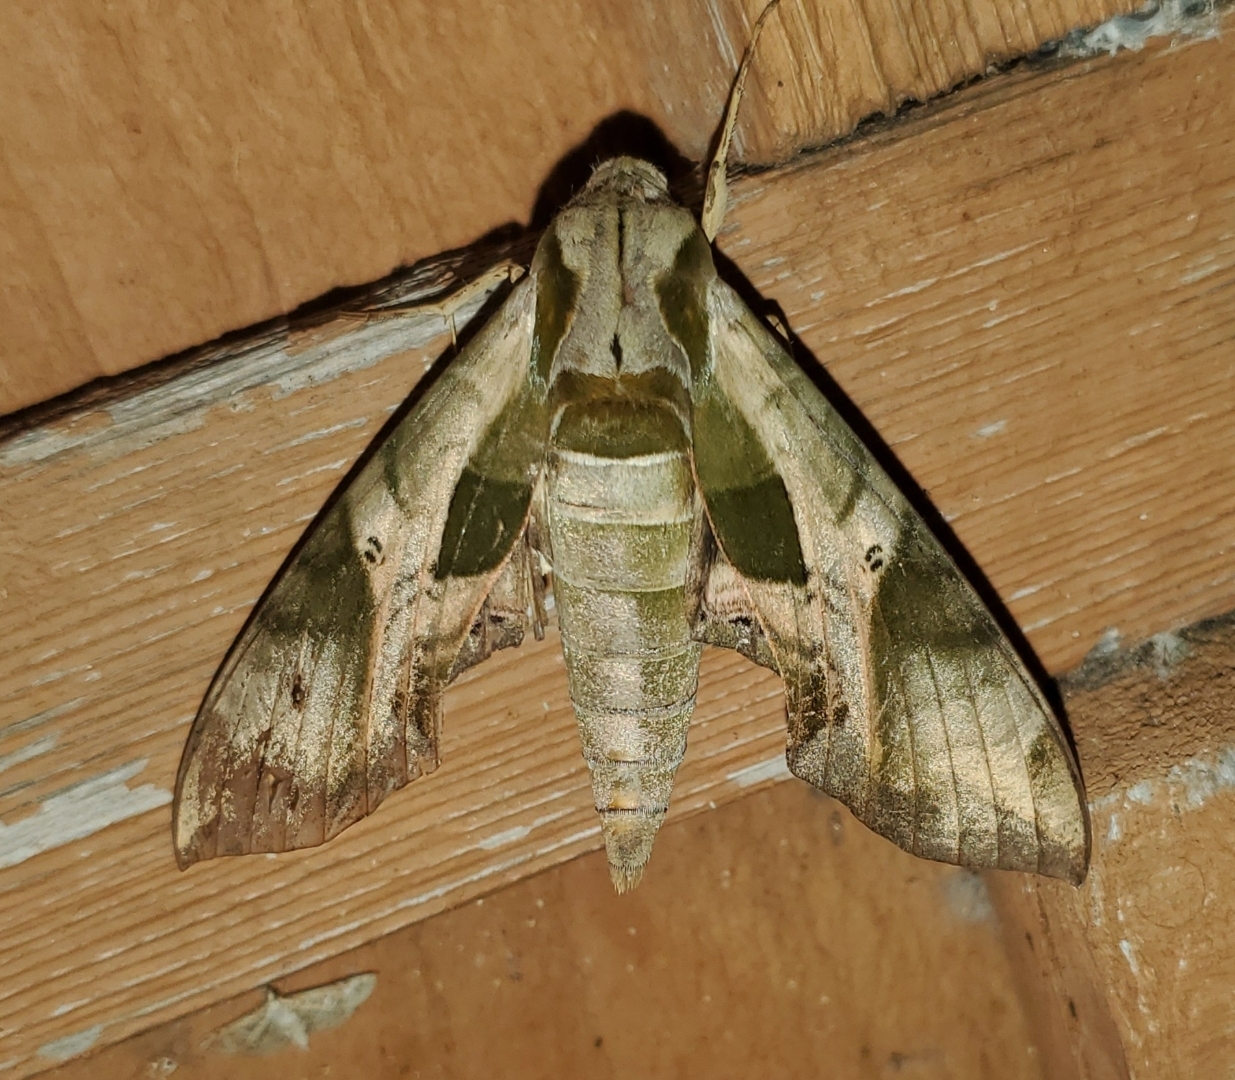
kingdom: Animalia
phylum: Arthropoda
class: Insecta
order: Lepidoptera
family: Sphingidae
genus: Eumorpha
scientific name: Eumorpha pandorus
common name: Pandora sphinx
